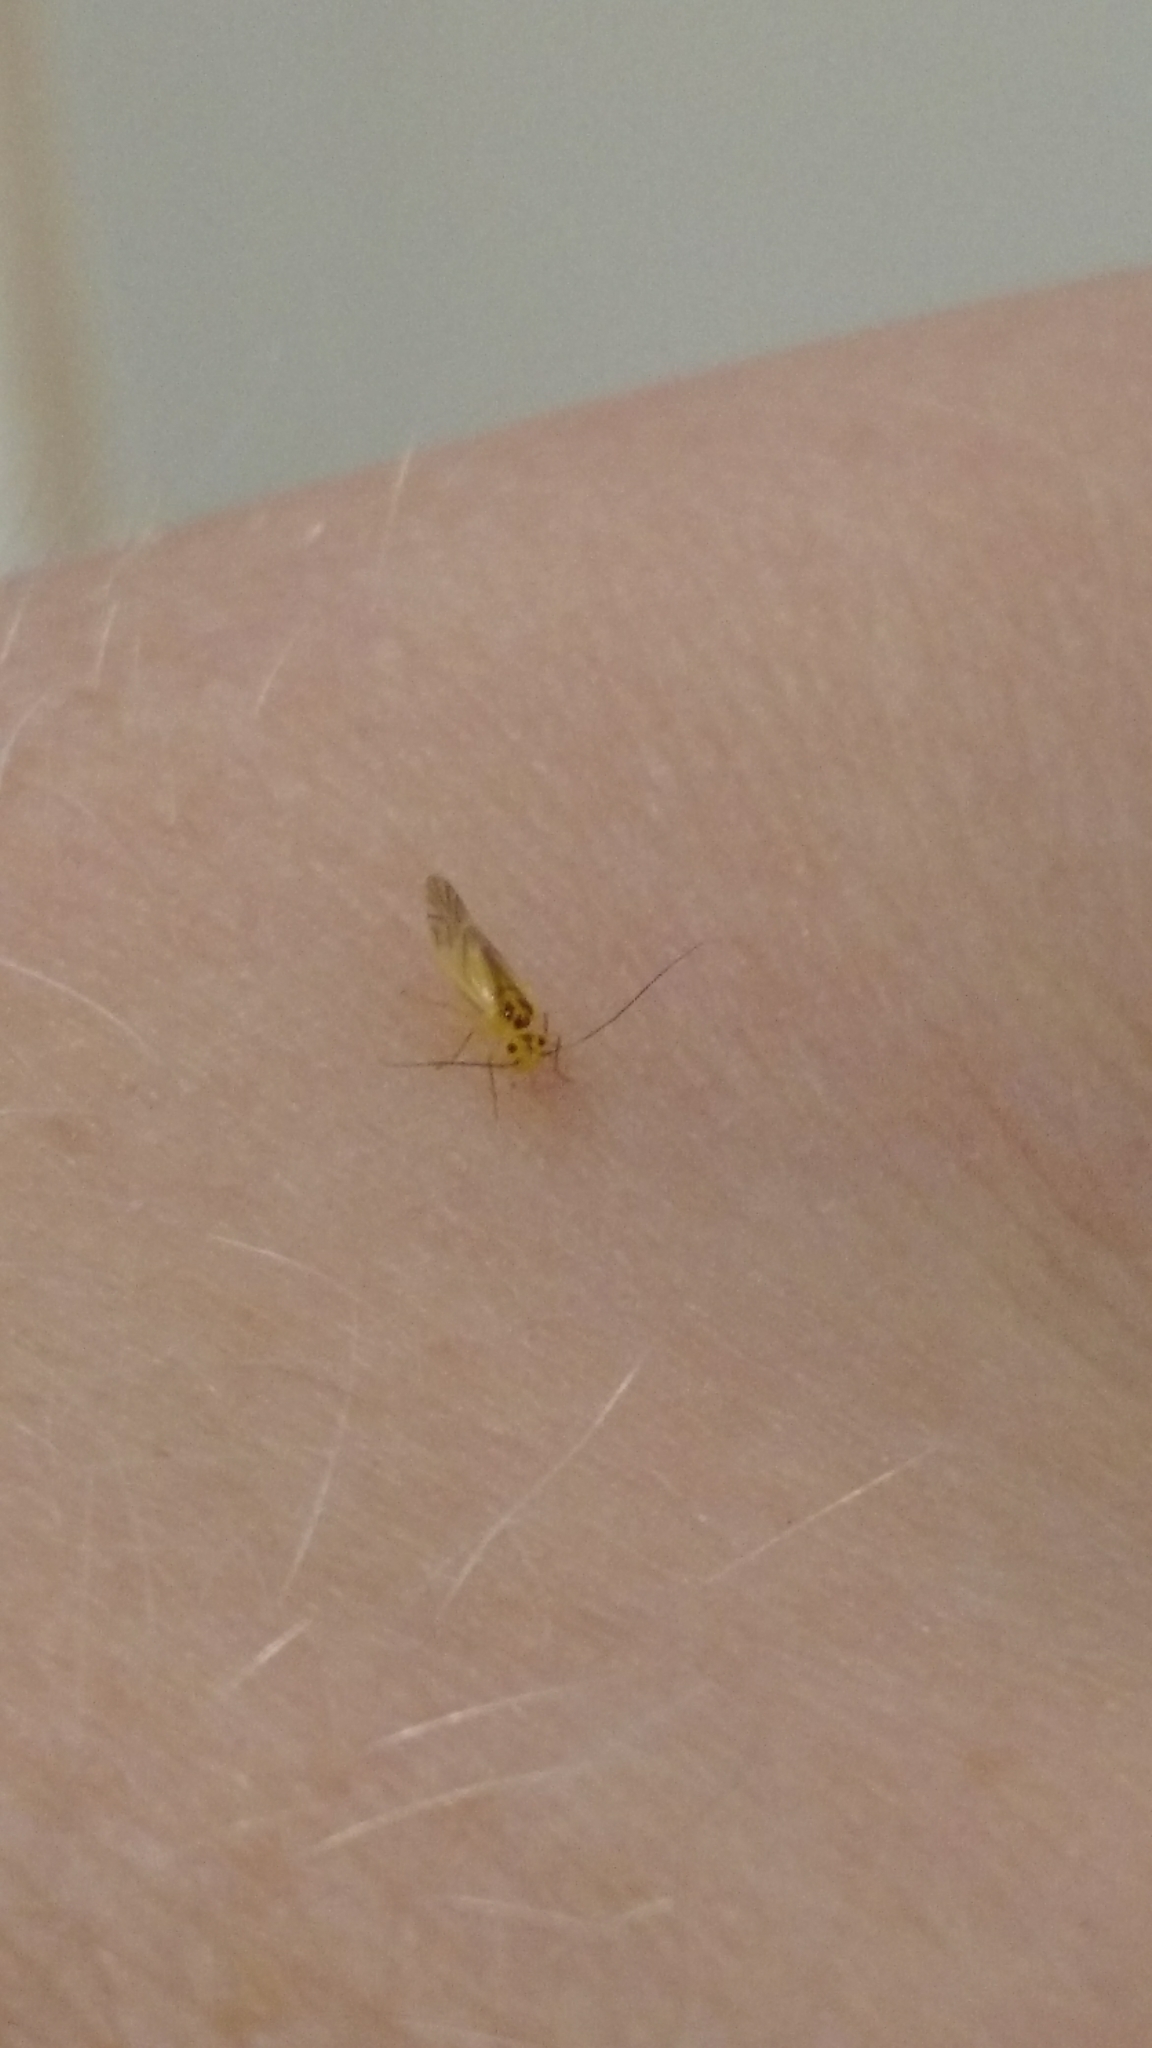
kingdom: Animalia
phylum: Arthropoda
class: Insecta
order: Psocodea
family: Caeciliusidae
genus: Valenzuela
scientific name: Valenzuela flavidus
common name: Yellow barklouse
